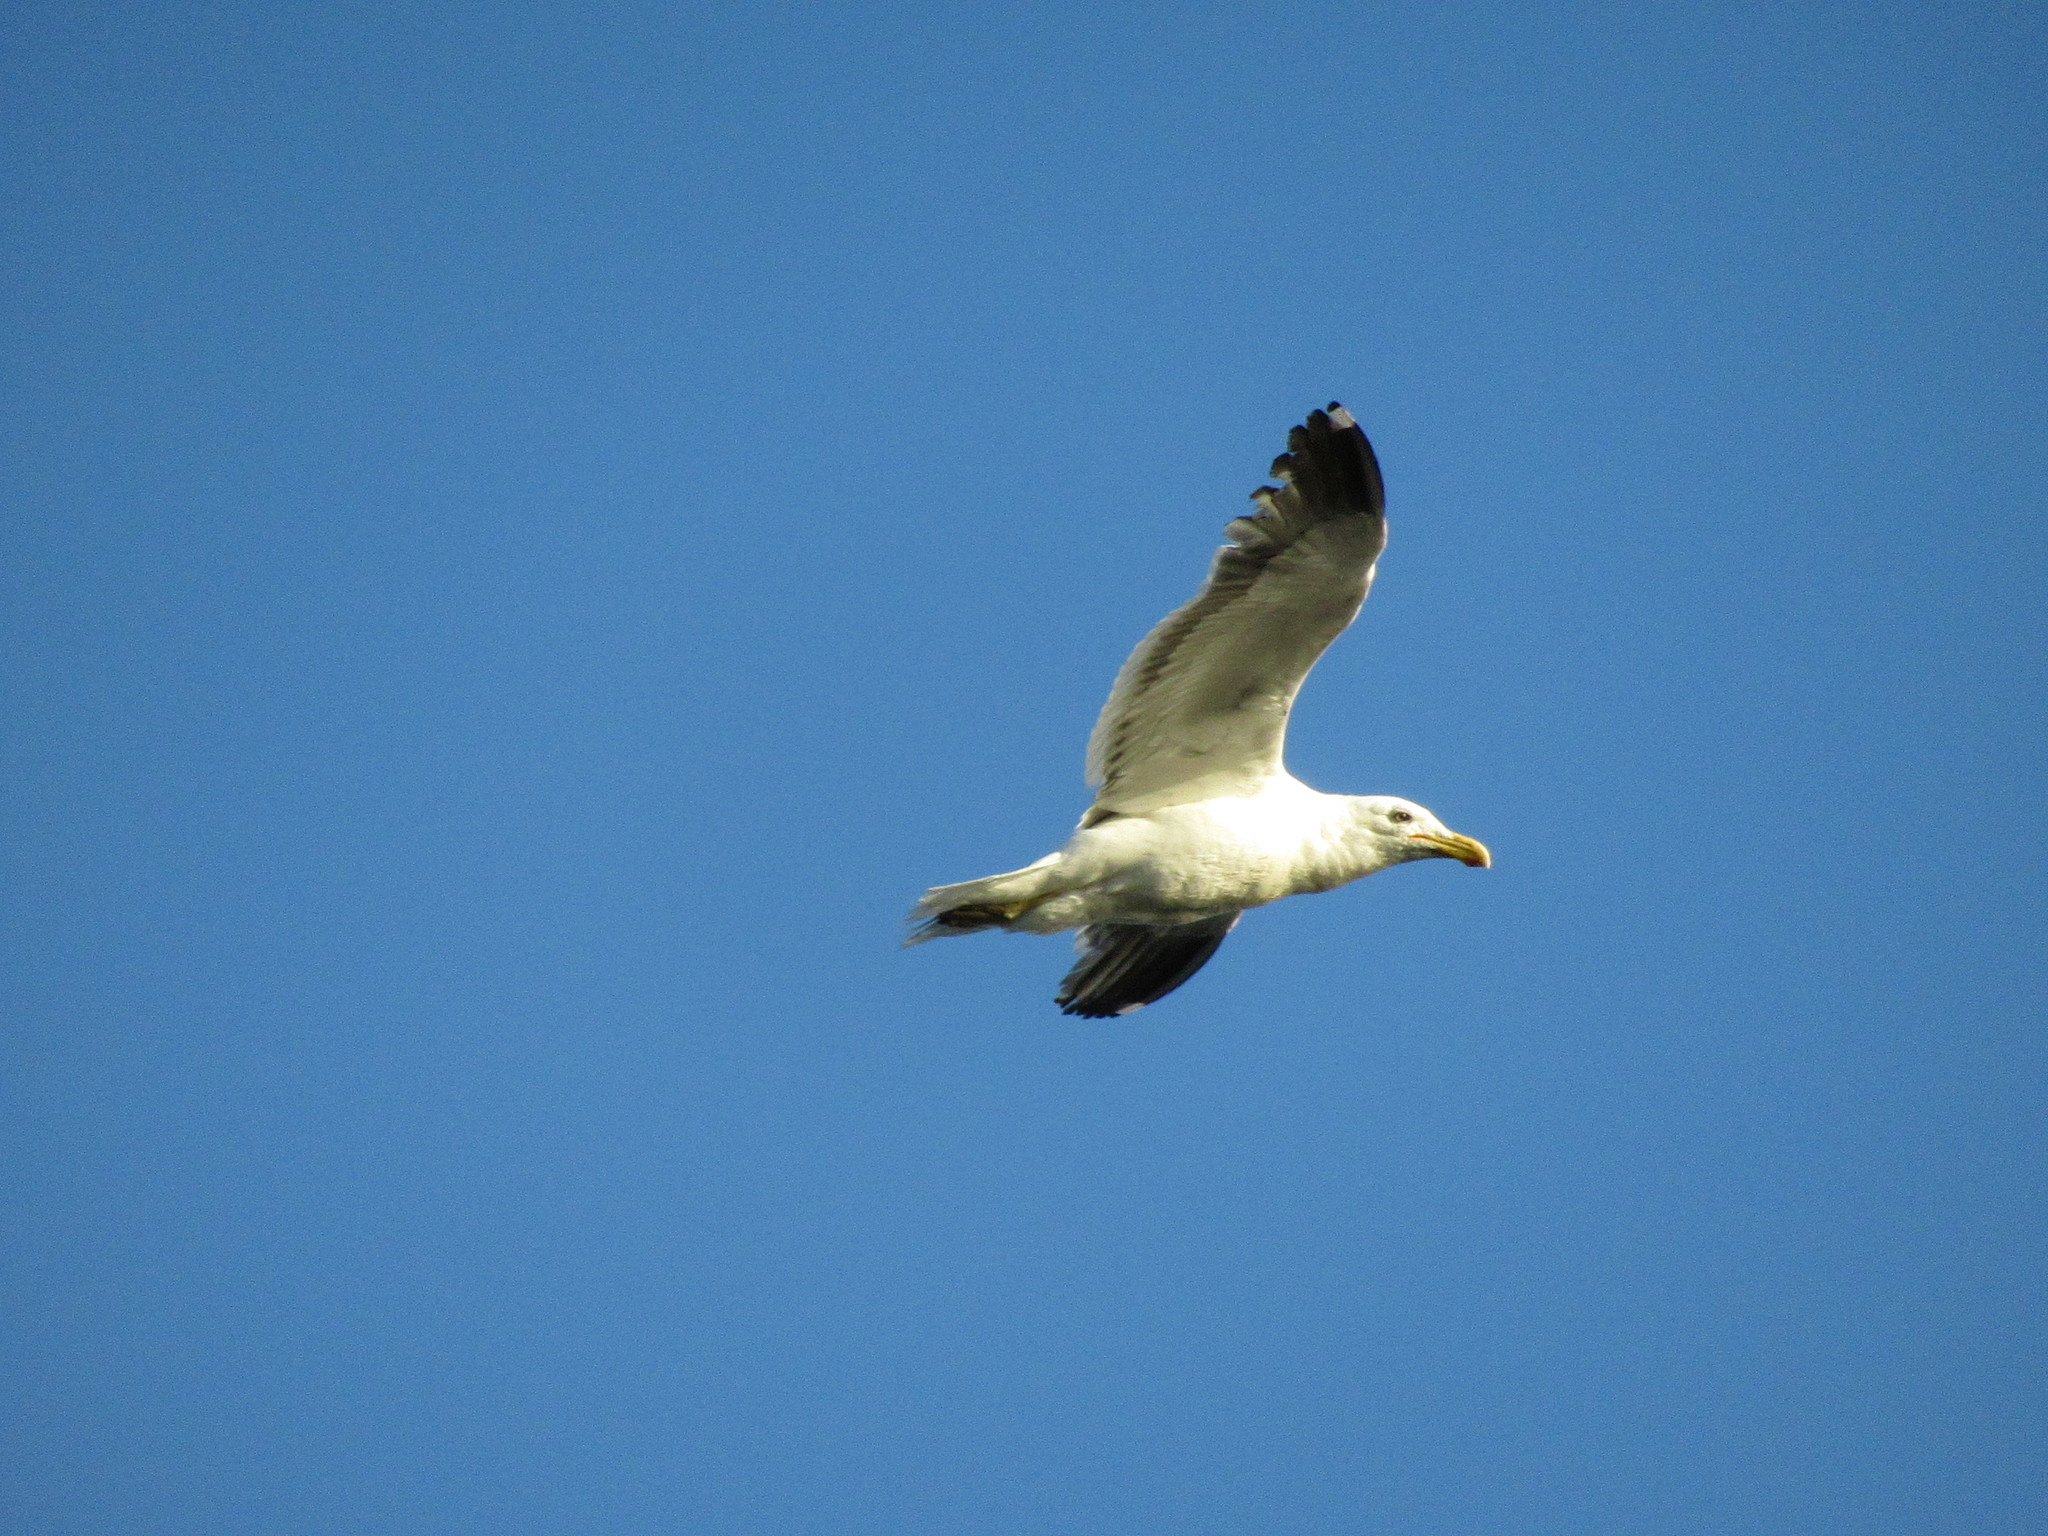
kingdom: Animalia
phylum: Chordata
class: Aves
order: Charadriiformes
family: Laridae
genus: Larus
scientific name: Larus dominicanus
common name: Kelp gull
